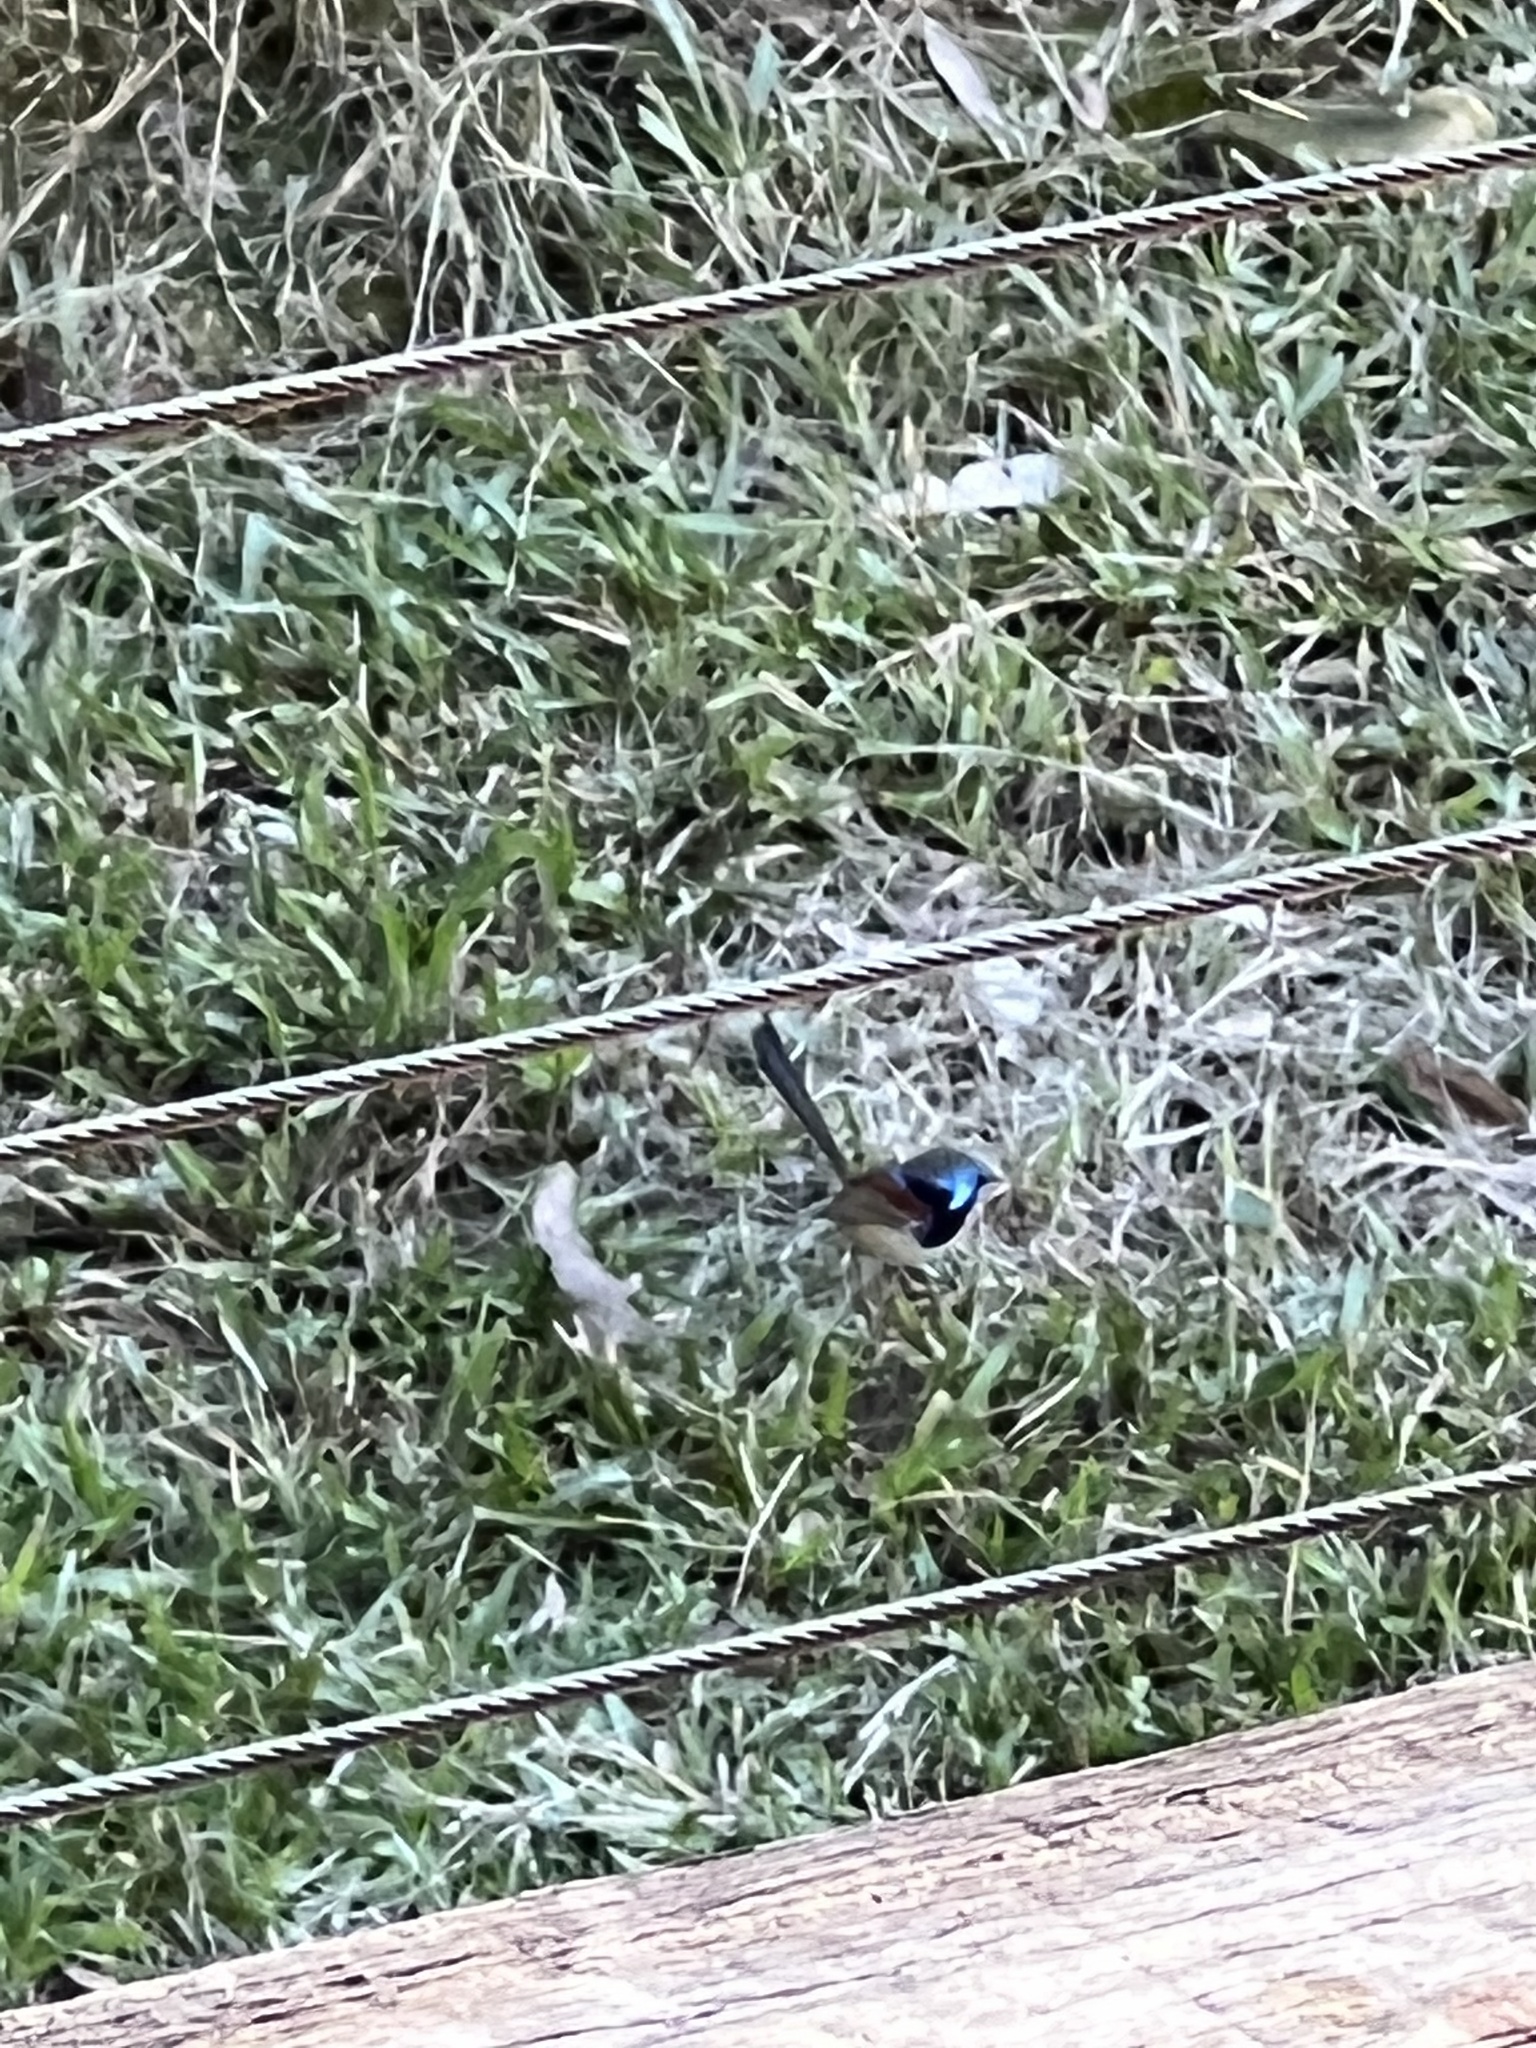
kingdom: Animalia
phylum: Chordata
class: Aves
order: Passeriformes
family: Maluridae
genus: Malurus
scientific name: Malurus lamberti
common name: Variegated fairywren
